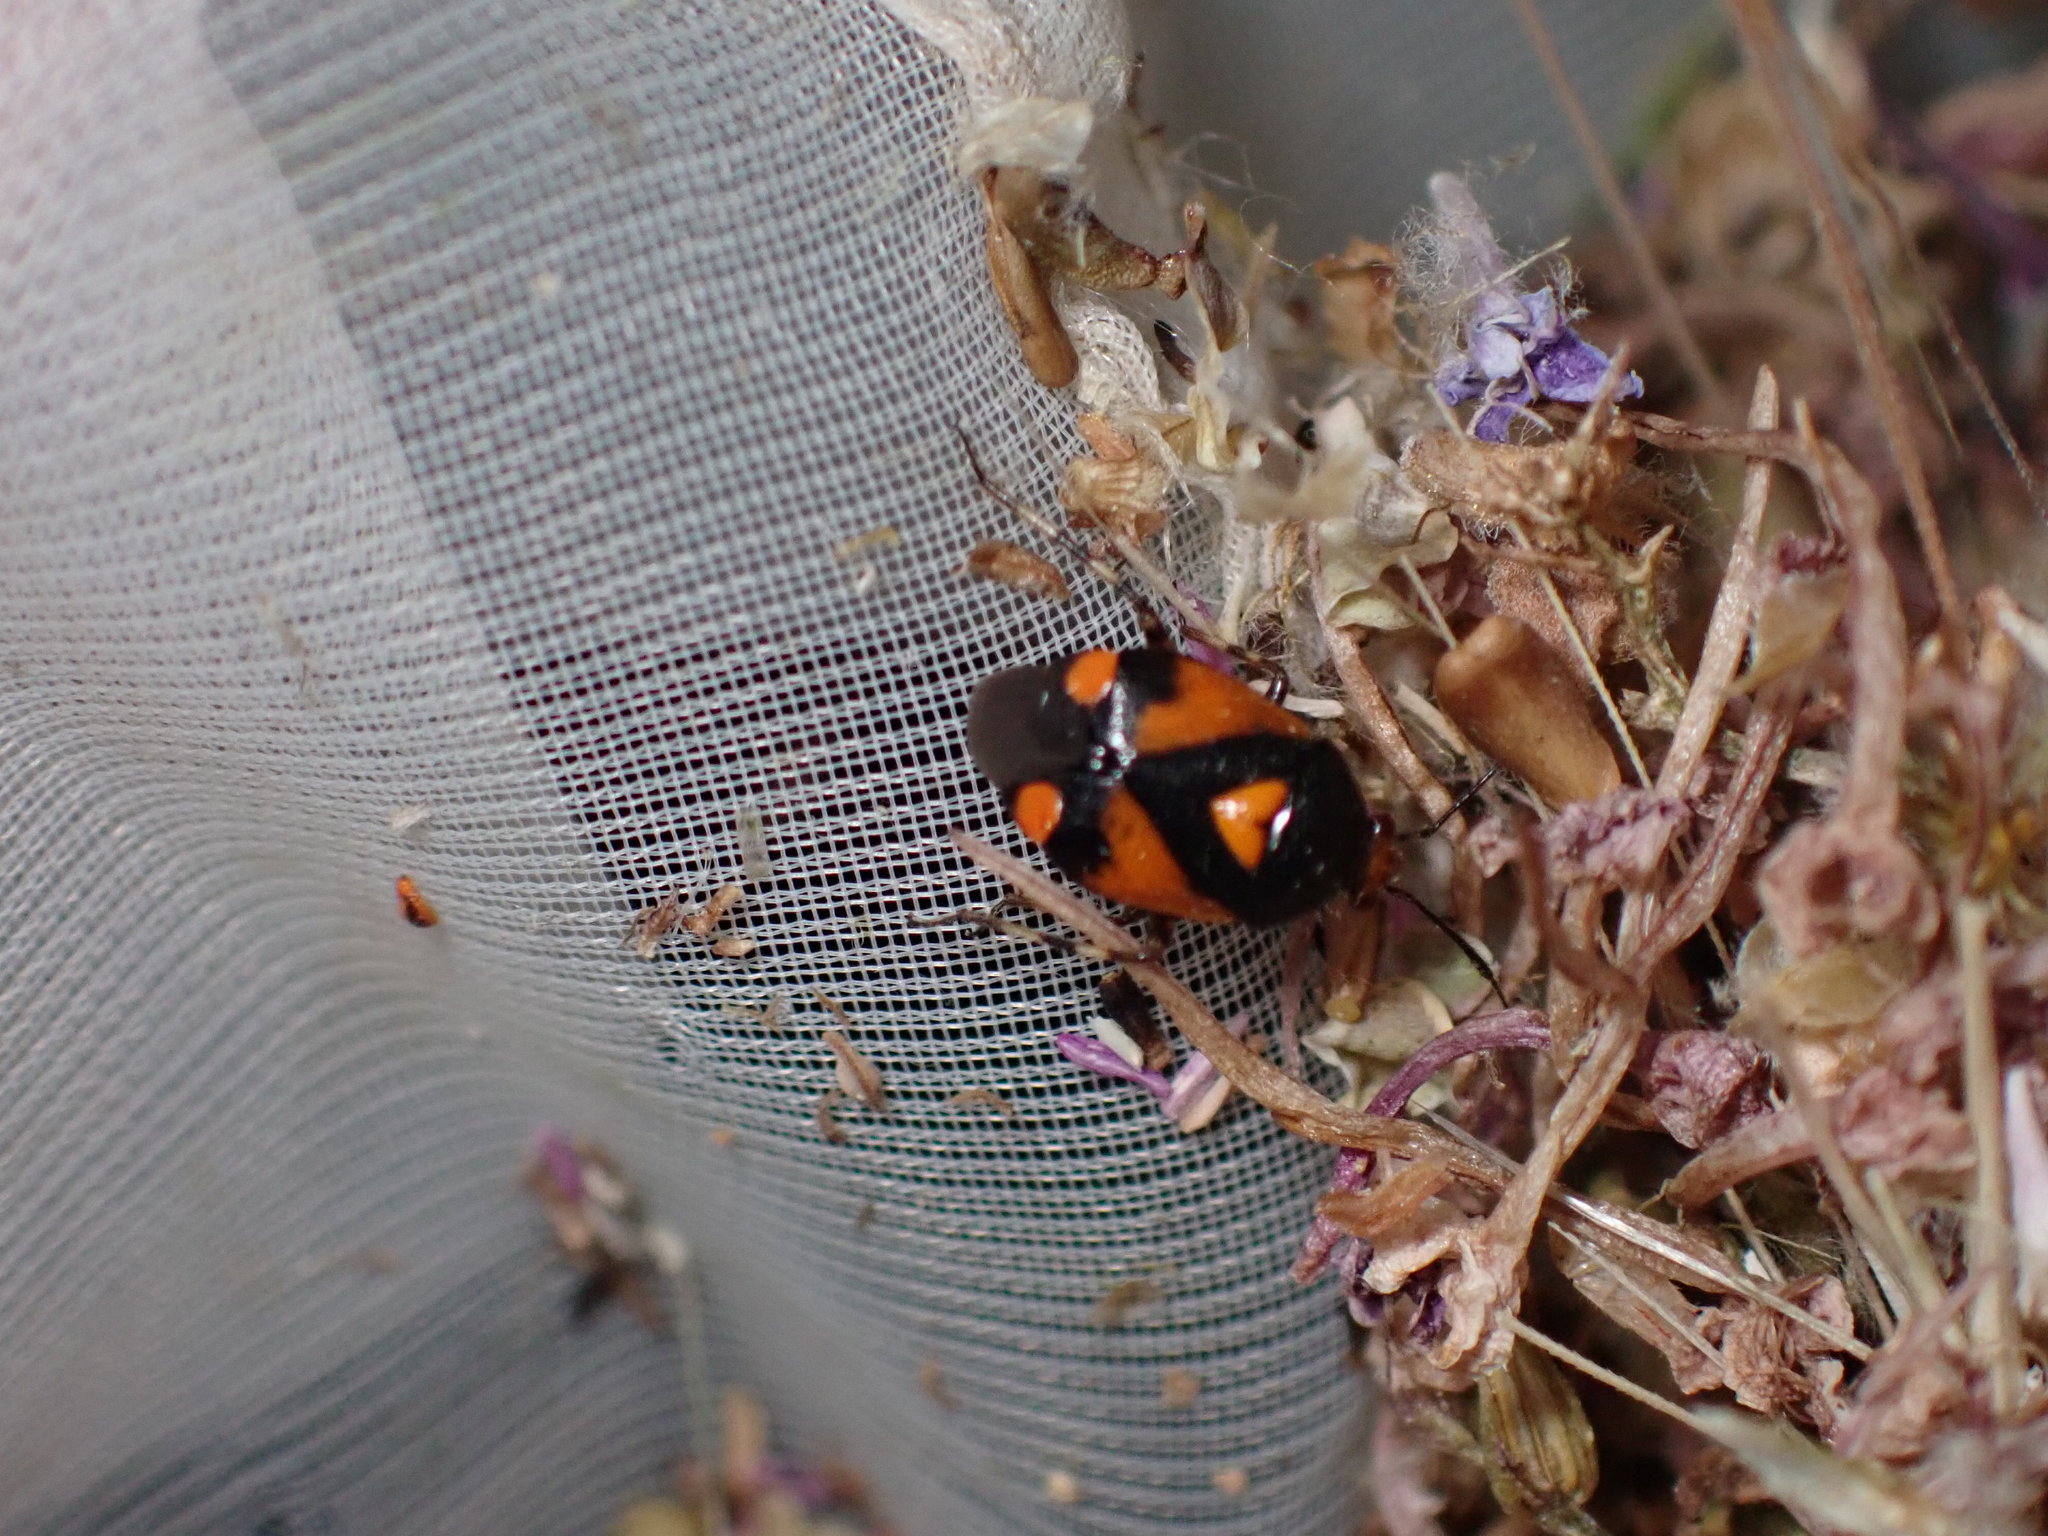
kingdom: Animalia
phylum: Arthropoda
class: Insecta
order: Hemiptera
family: Miridae
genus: Deraeocoris
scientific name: Deraeocoris schach
